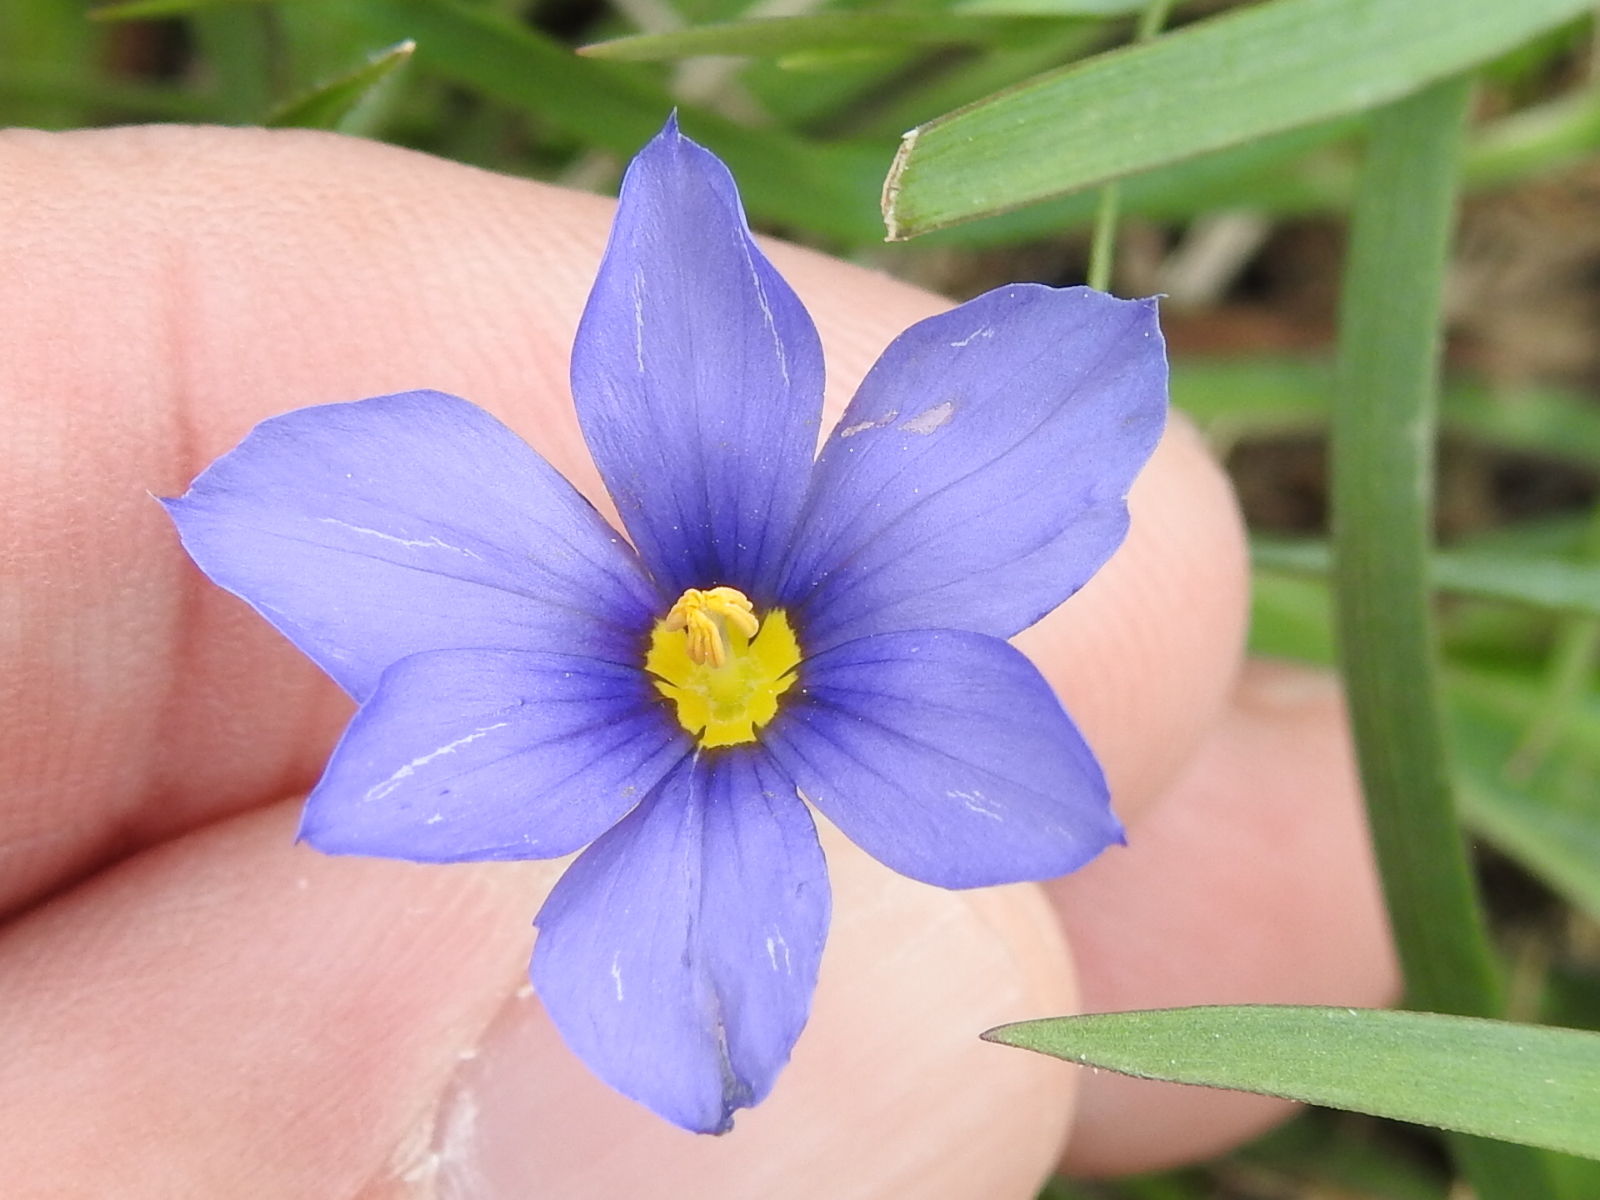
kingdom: Plantae
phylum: Tracheophyta
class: Liliopsida
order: Asparagales
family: Iridaceae
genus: Sisyrinchium
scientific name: Sisyrinchium pruinosum
